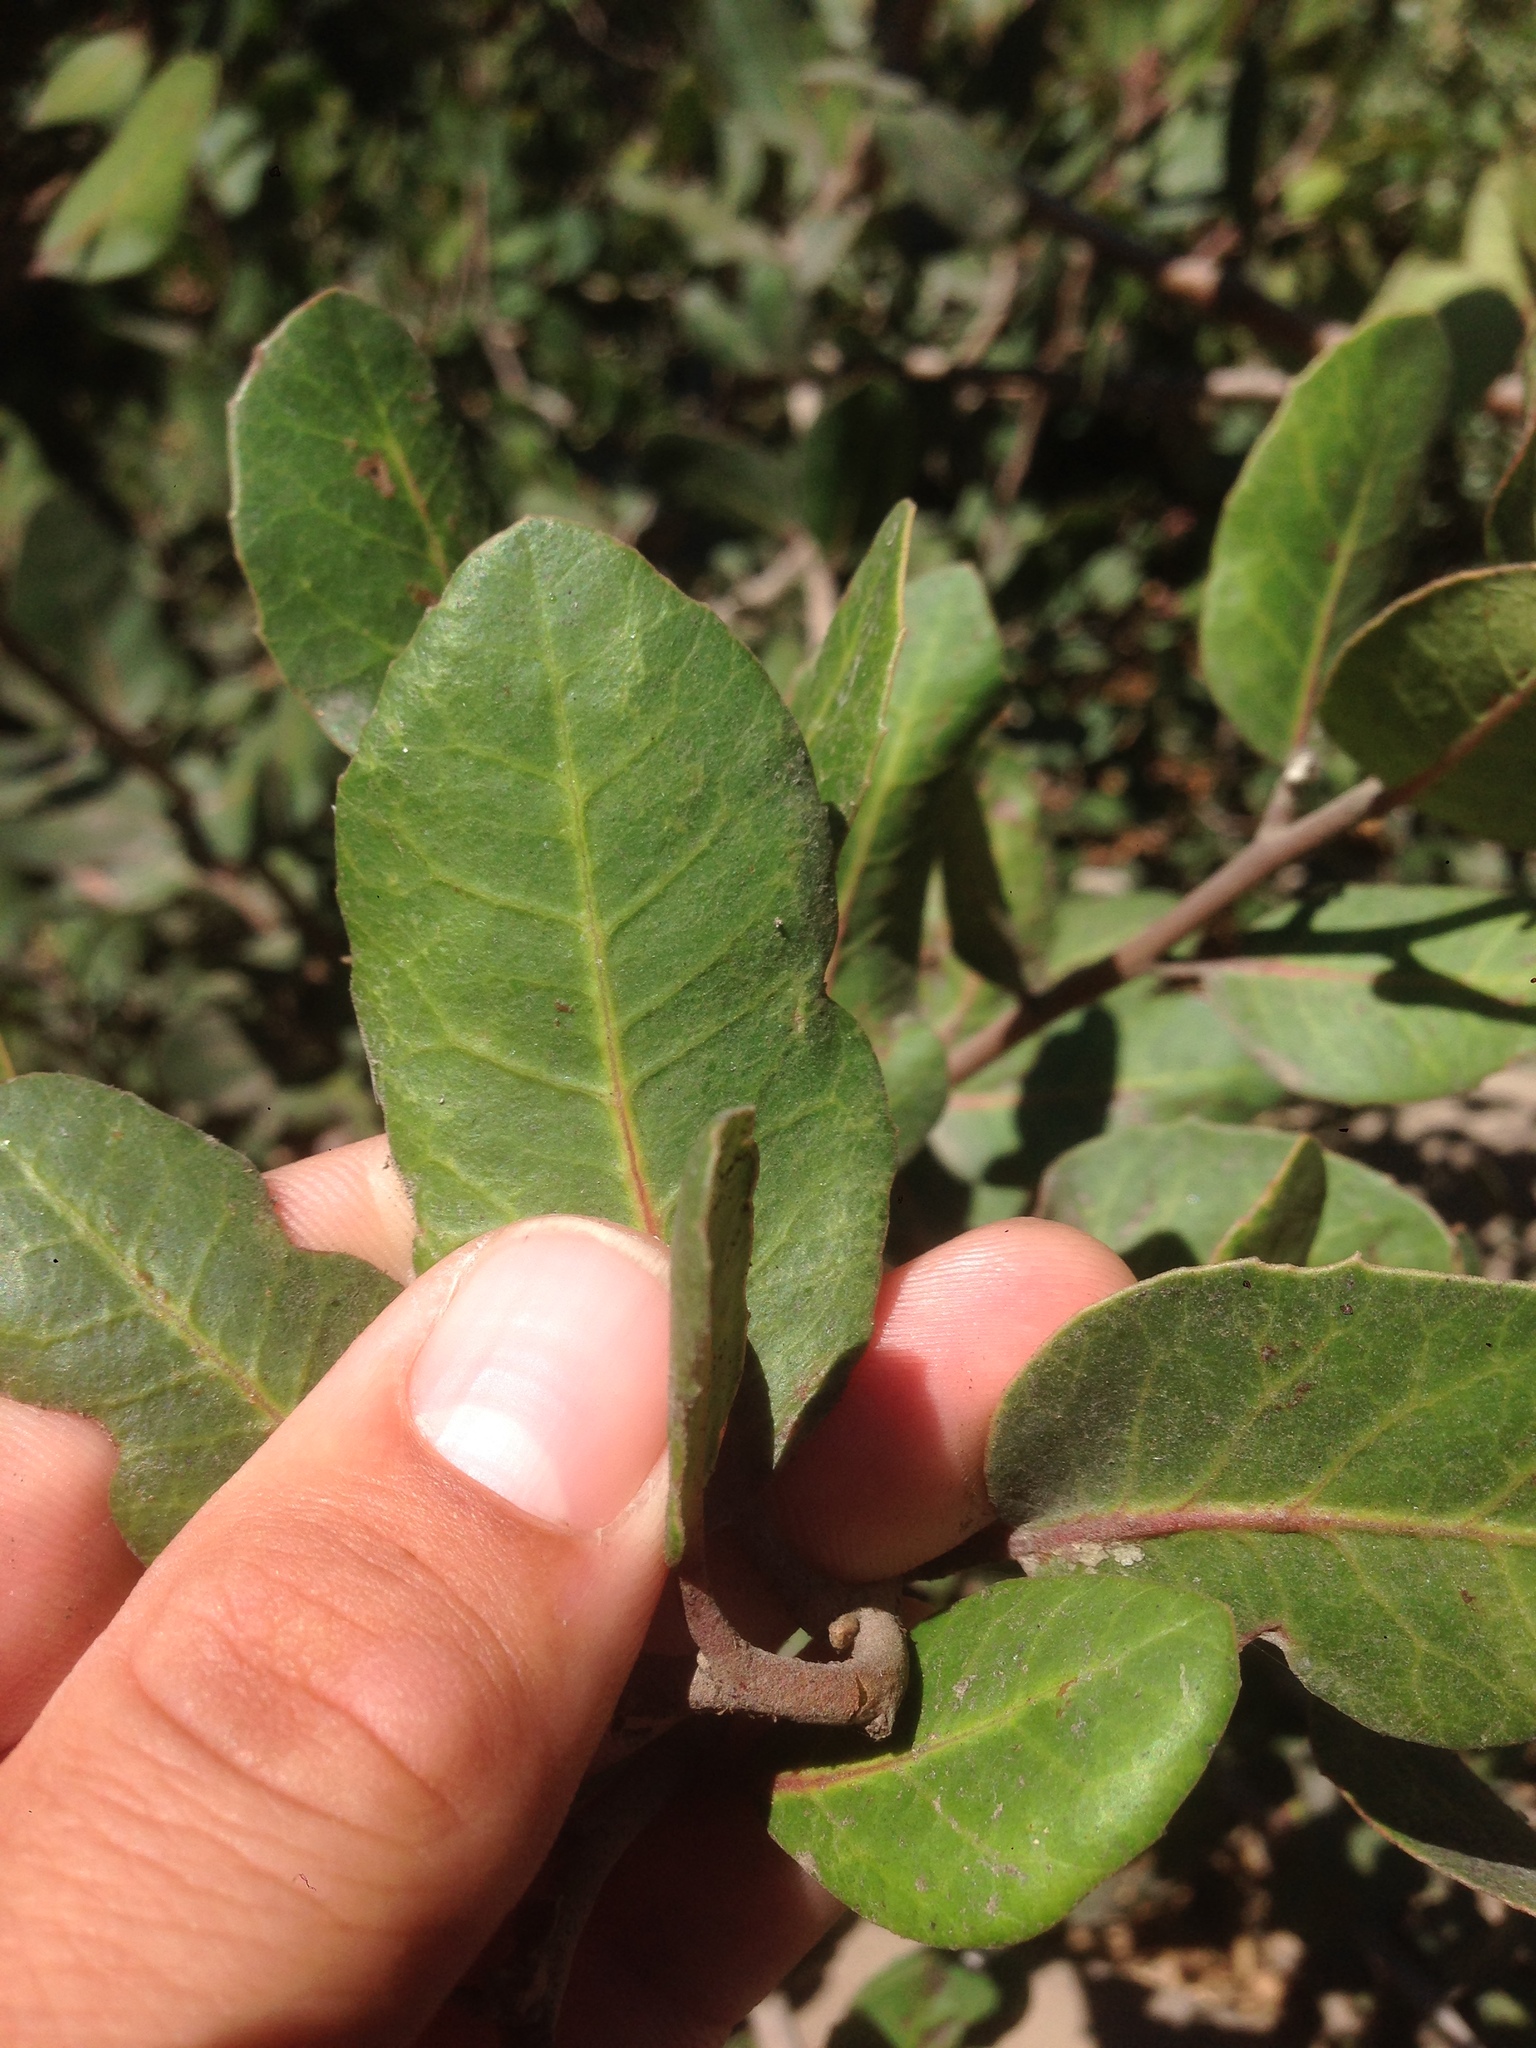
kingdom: Plantae
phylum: Tracheophyta
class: Magnoliopsida
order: Sapindales
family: Anacardiaceae
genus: Rhus
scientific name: Rhus integrifolia
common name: Lemonade sumac
